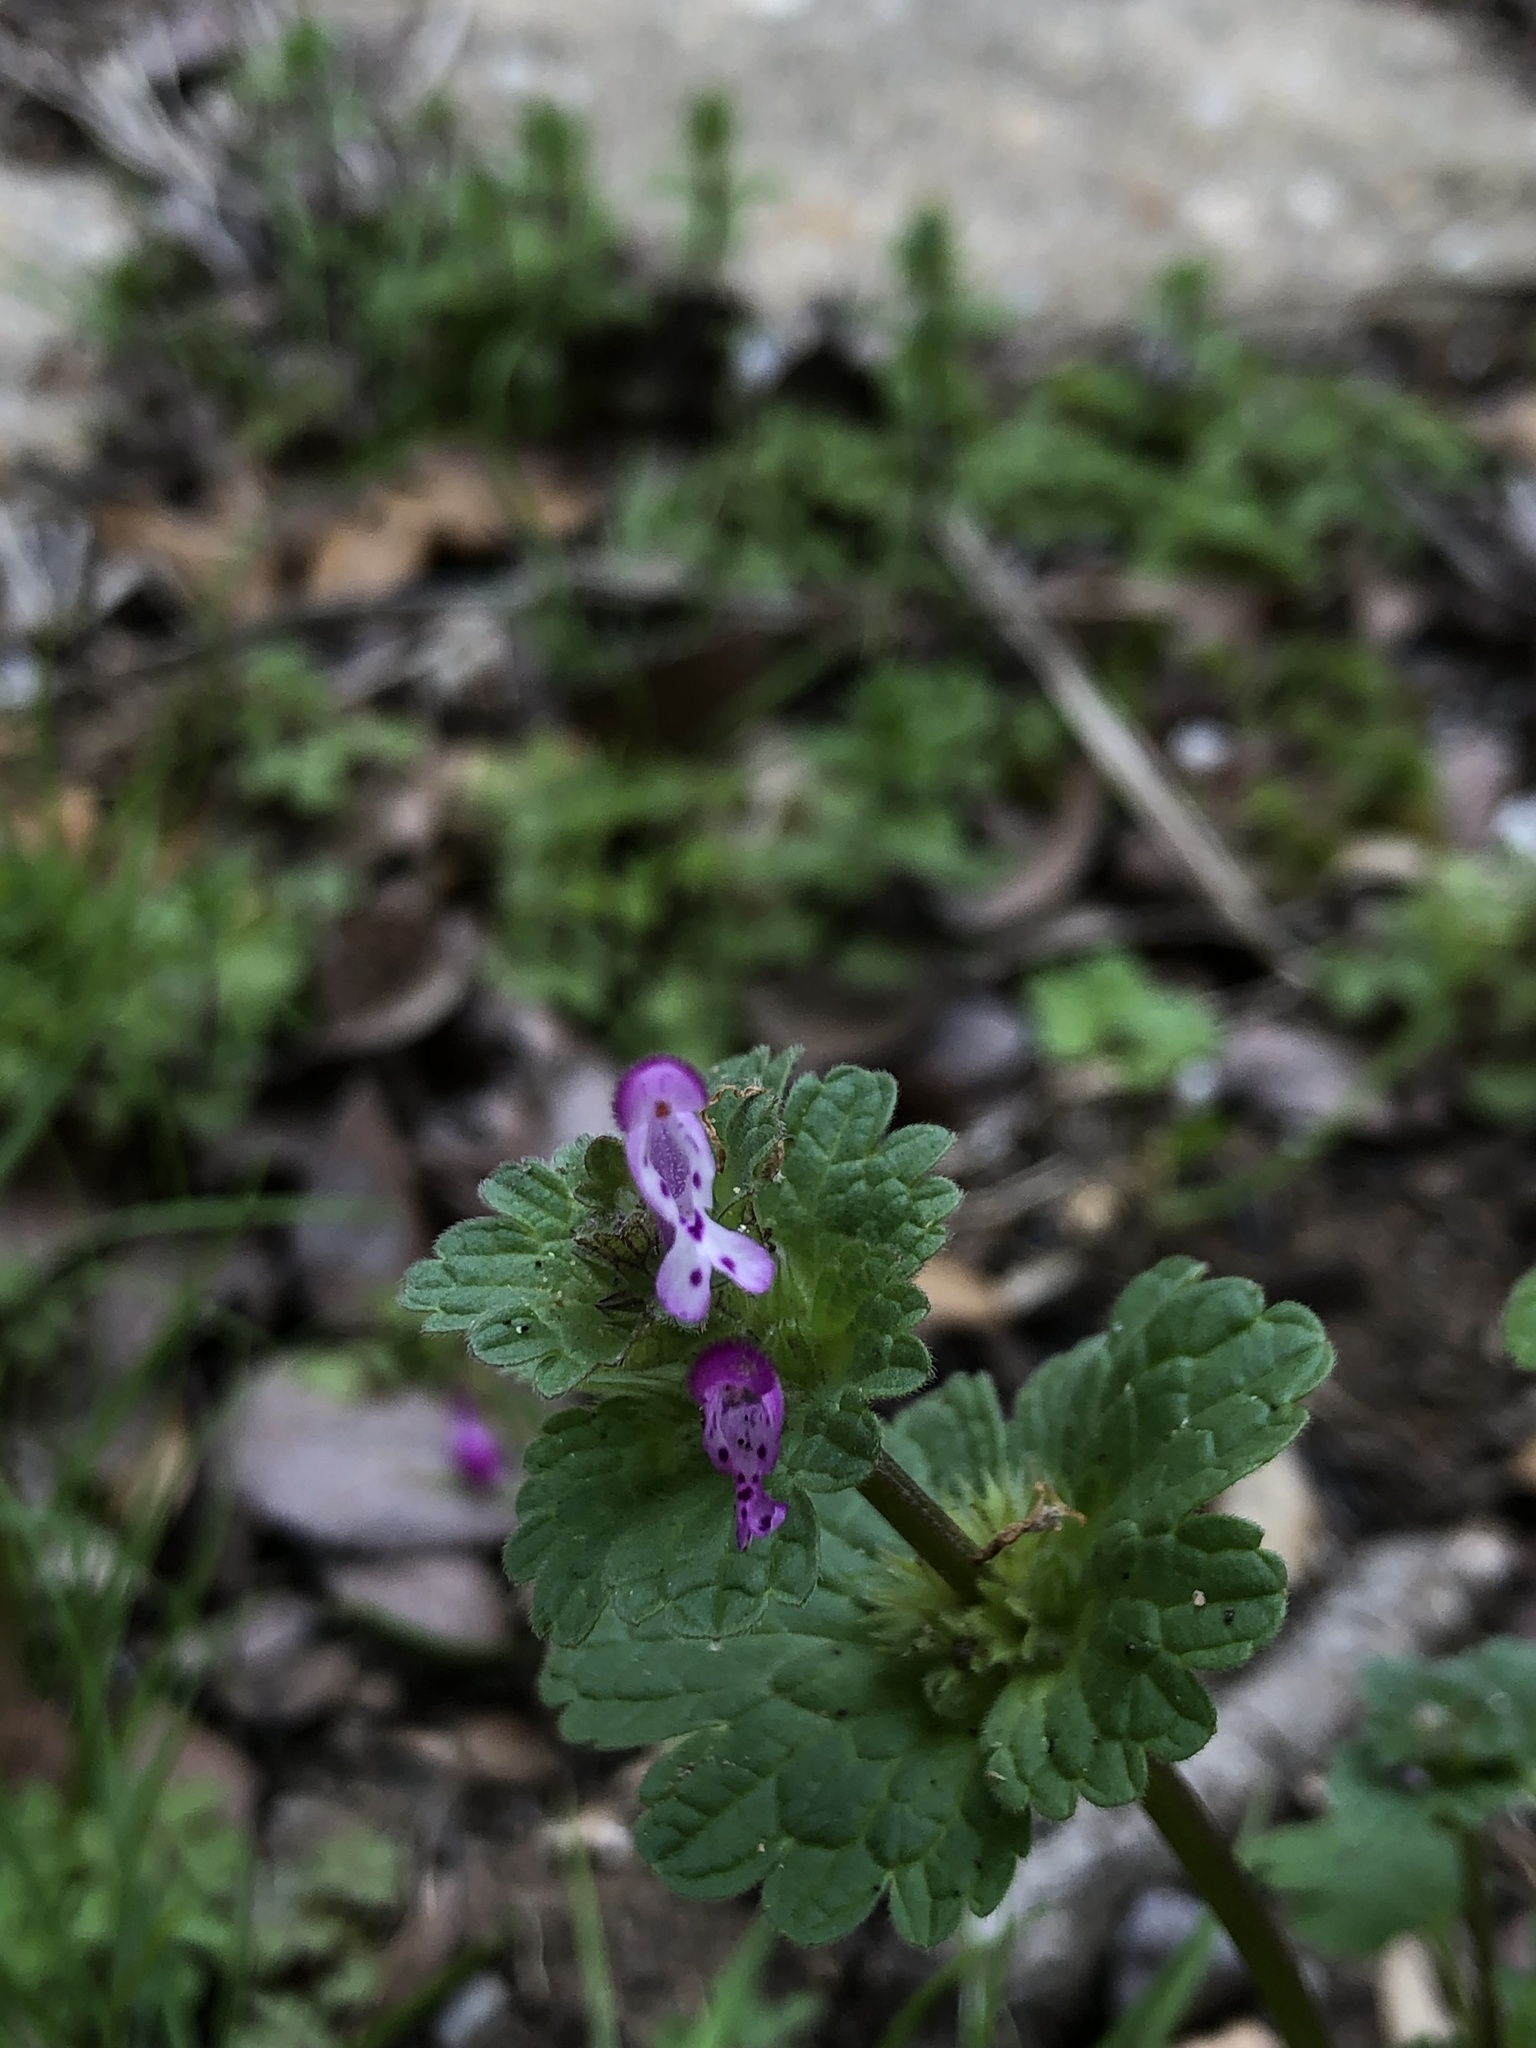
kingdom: Plantae
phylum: Tracheophyta
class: Magnoliopsida
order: Lamiales
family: Lamiaceae
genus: Lamium
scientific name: Lamium amplexicaule
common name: Henbit dead-nettle
